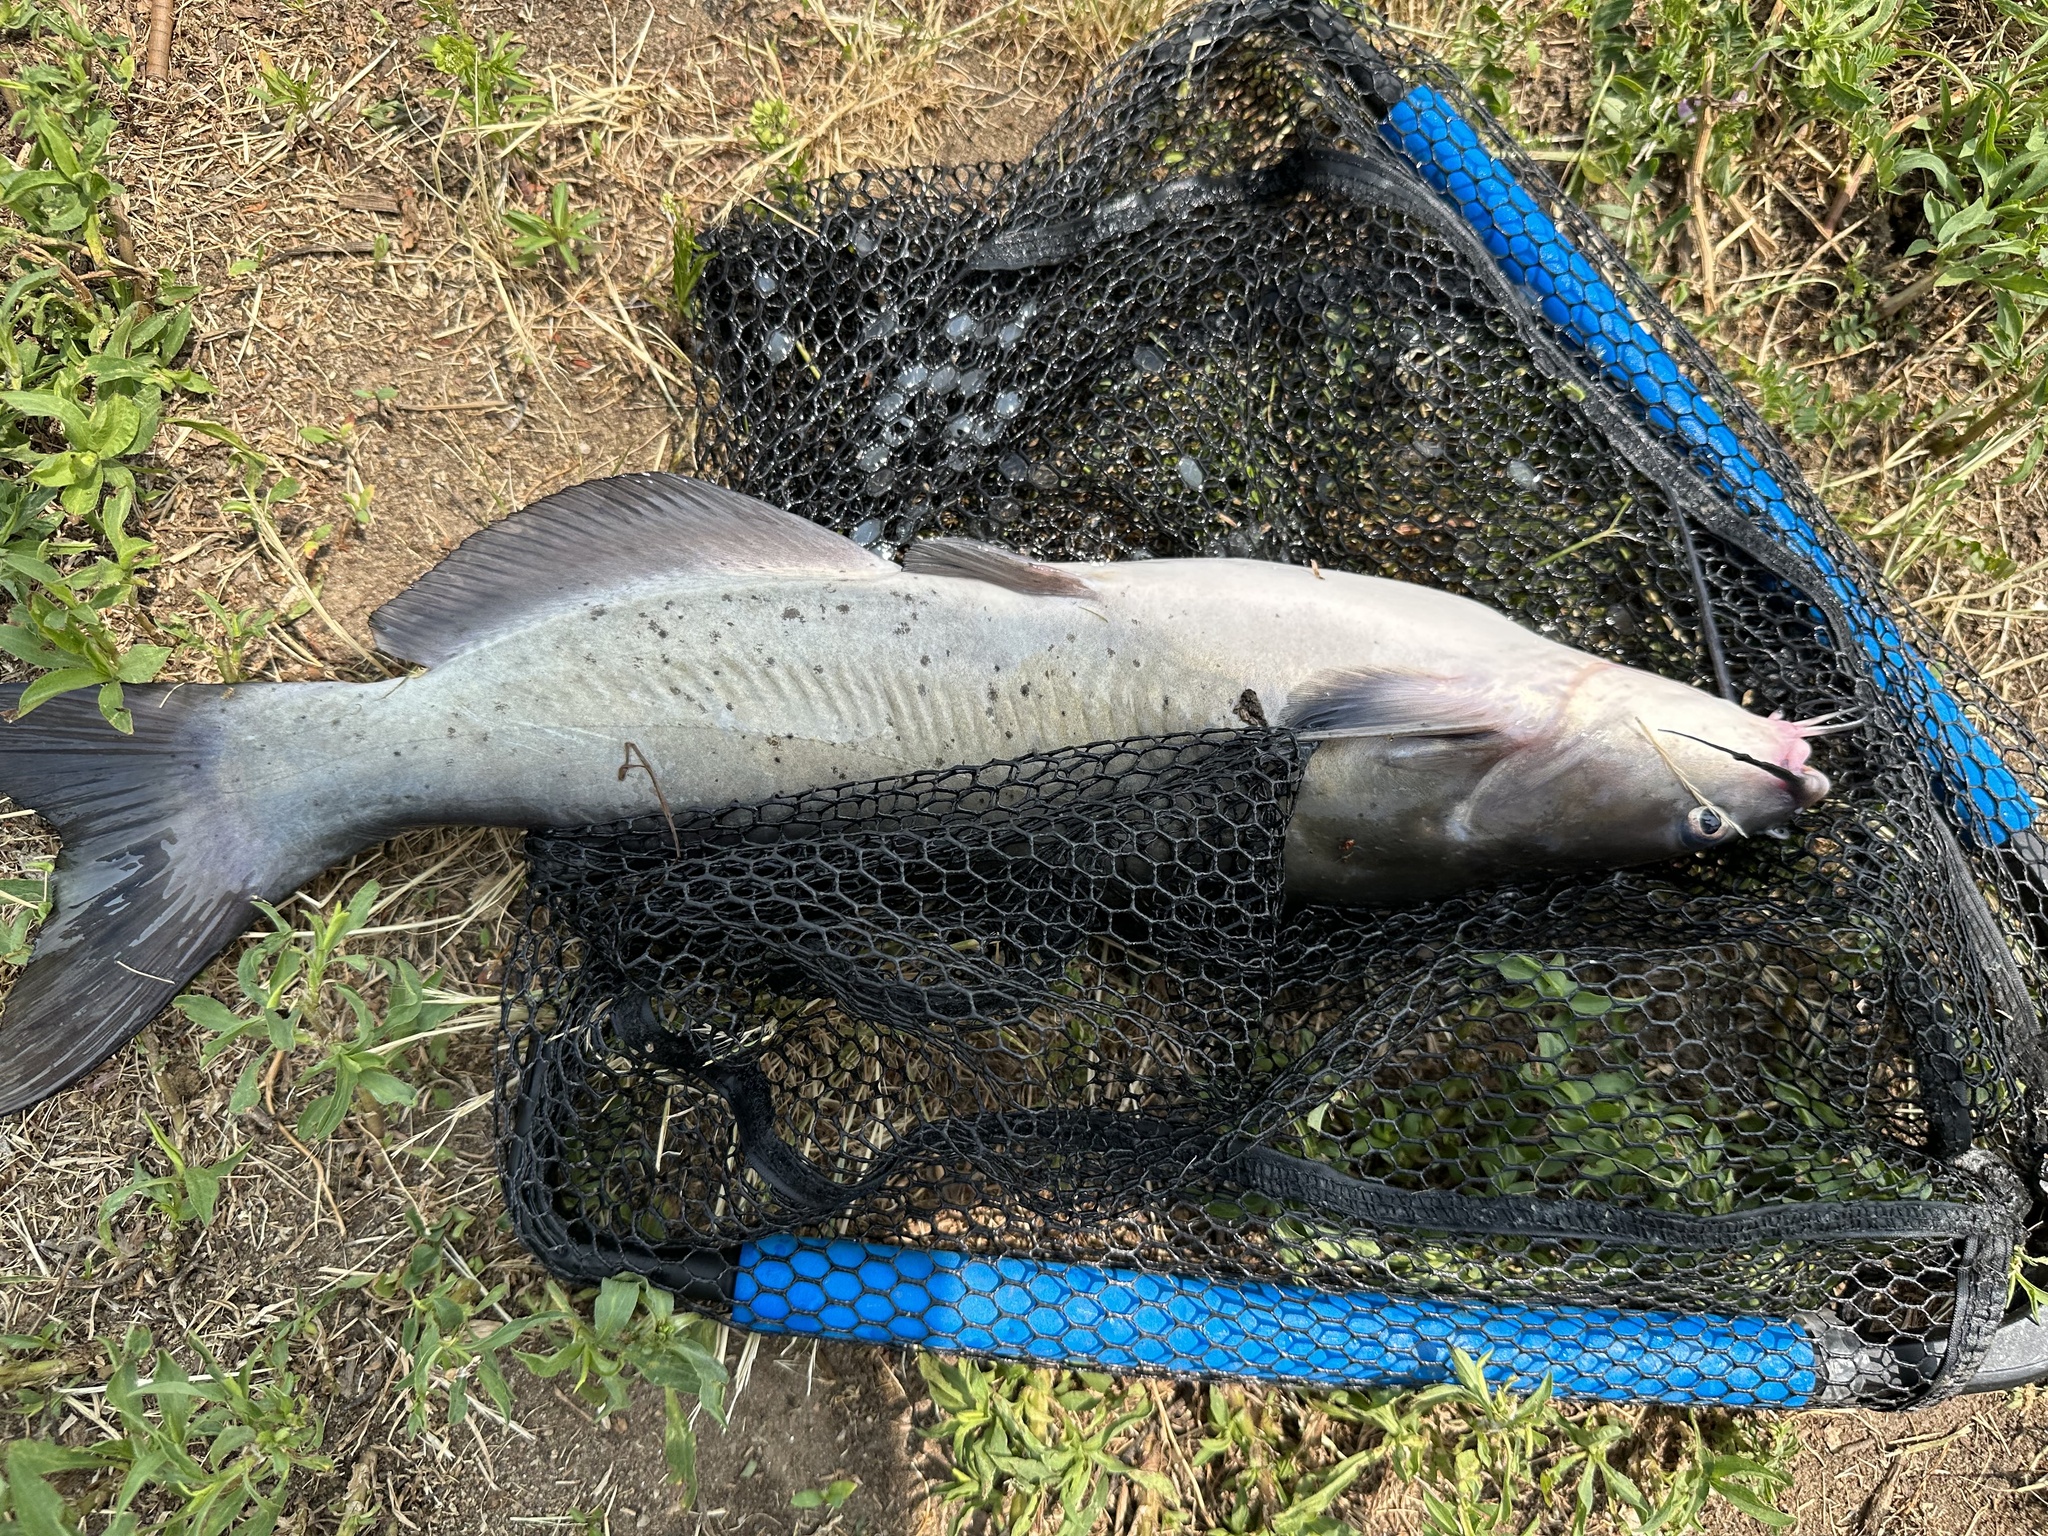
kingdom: Animalia
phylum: Chordata
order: Siluriformes
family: Ictaluridae
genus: Ictalurus
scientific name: Ictalurus punctatus
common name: Channel catfish
